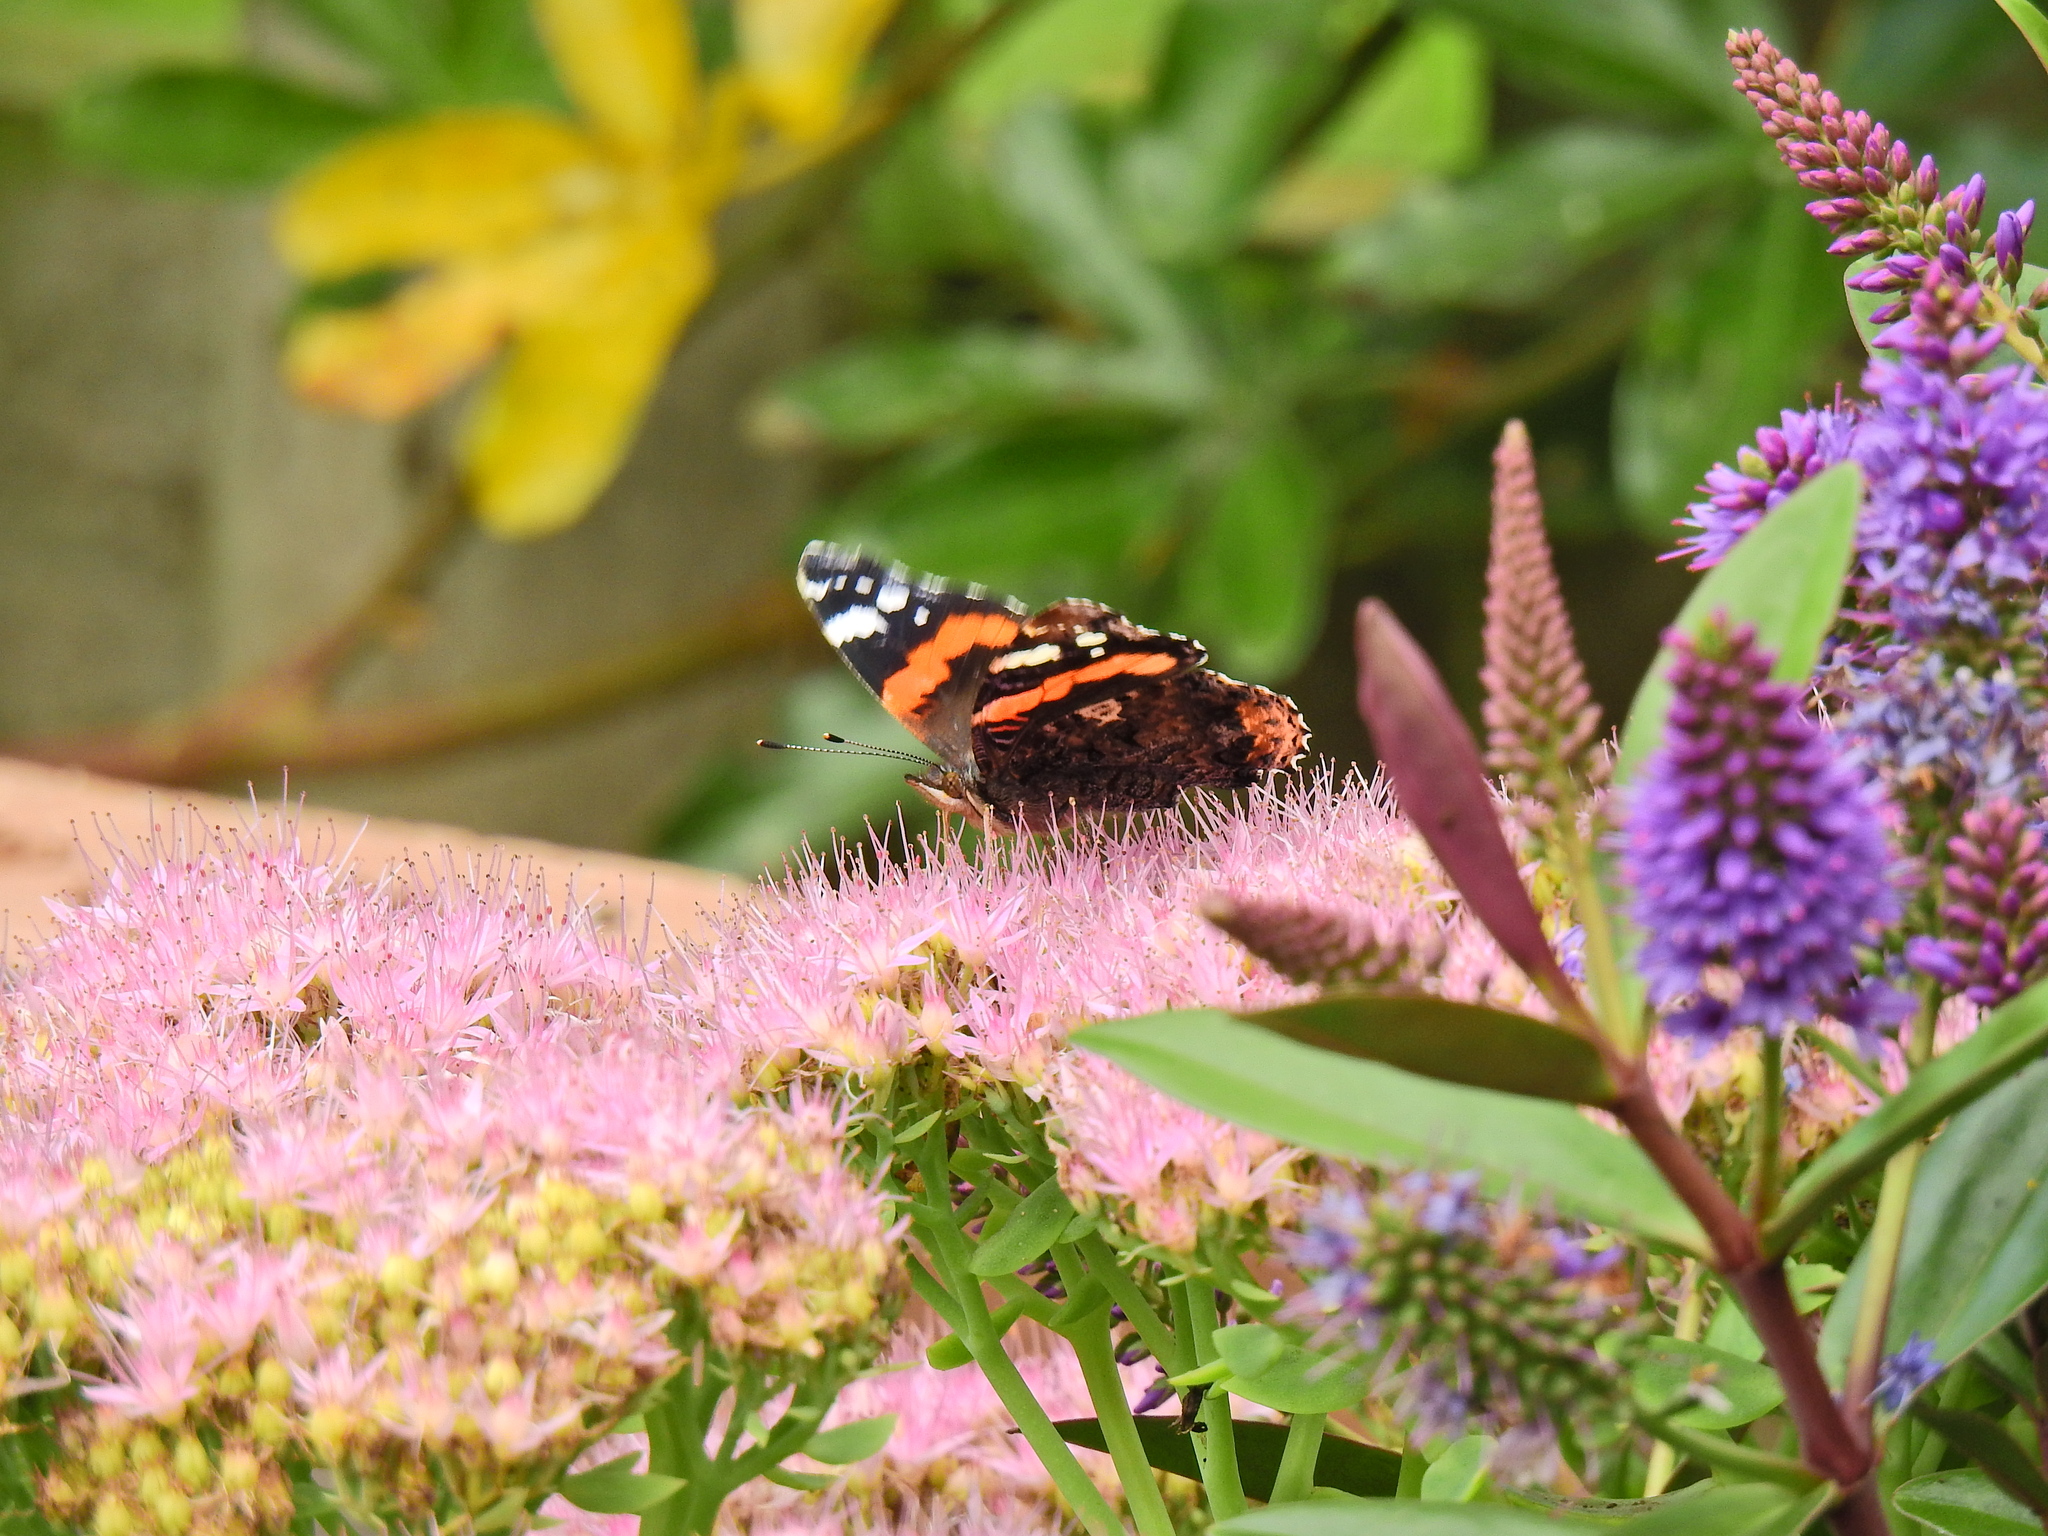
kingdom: Animalia
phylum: Arthropoda
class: Insecta
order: Lepidoptera
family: Nymphalidae
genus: Vanessa
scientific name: Vanessa atalanta
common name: Red admiral
